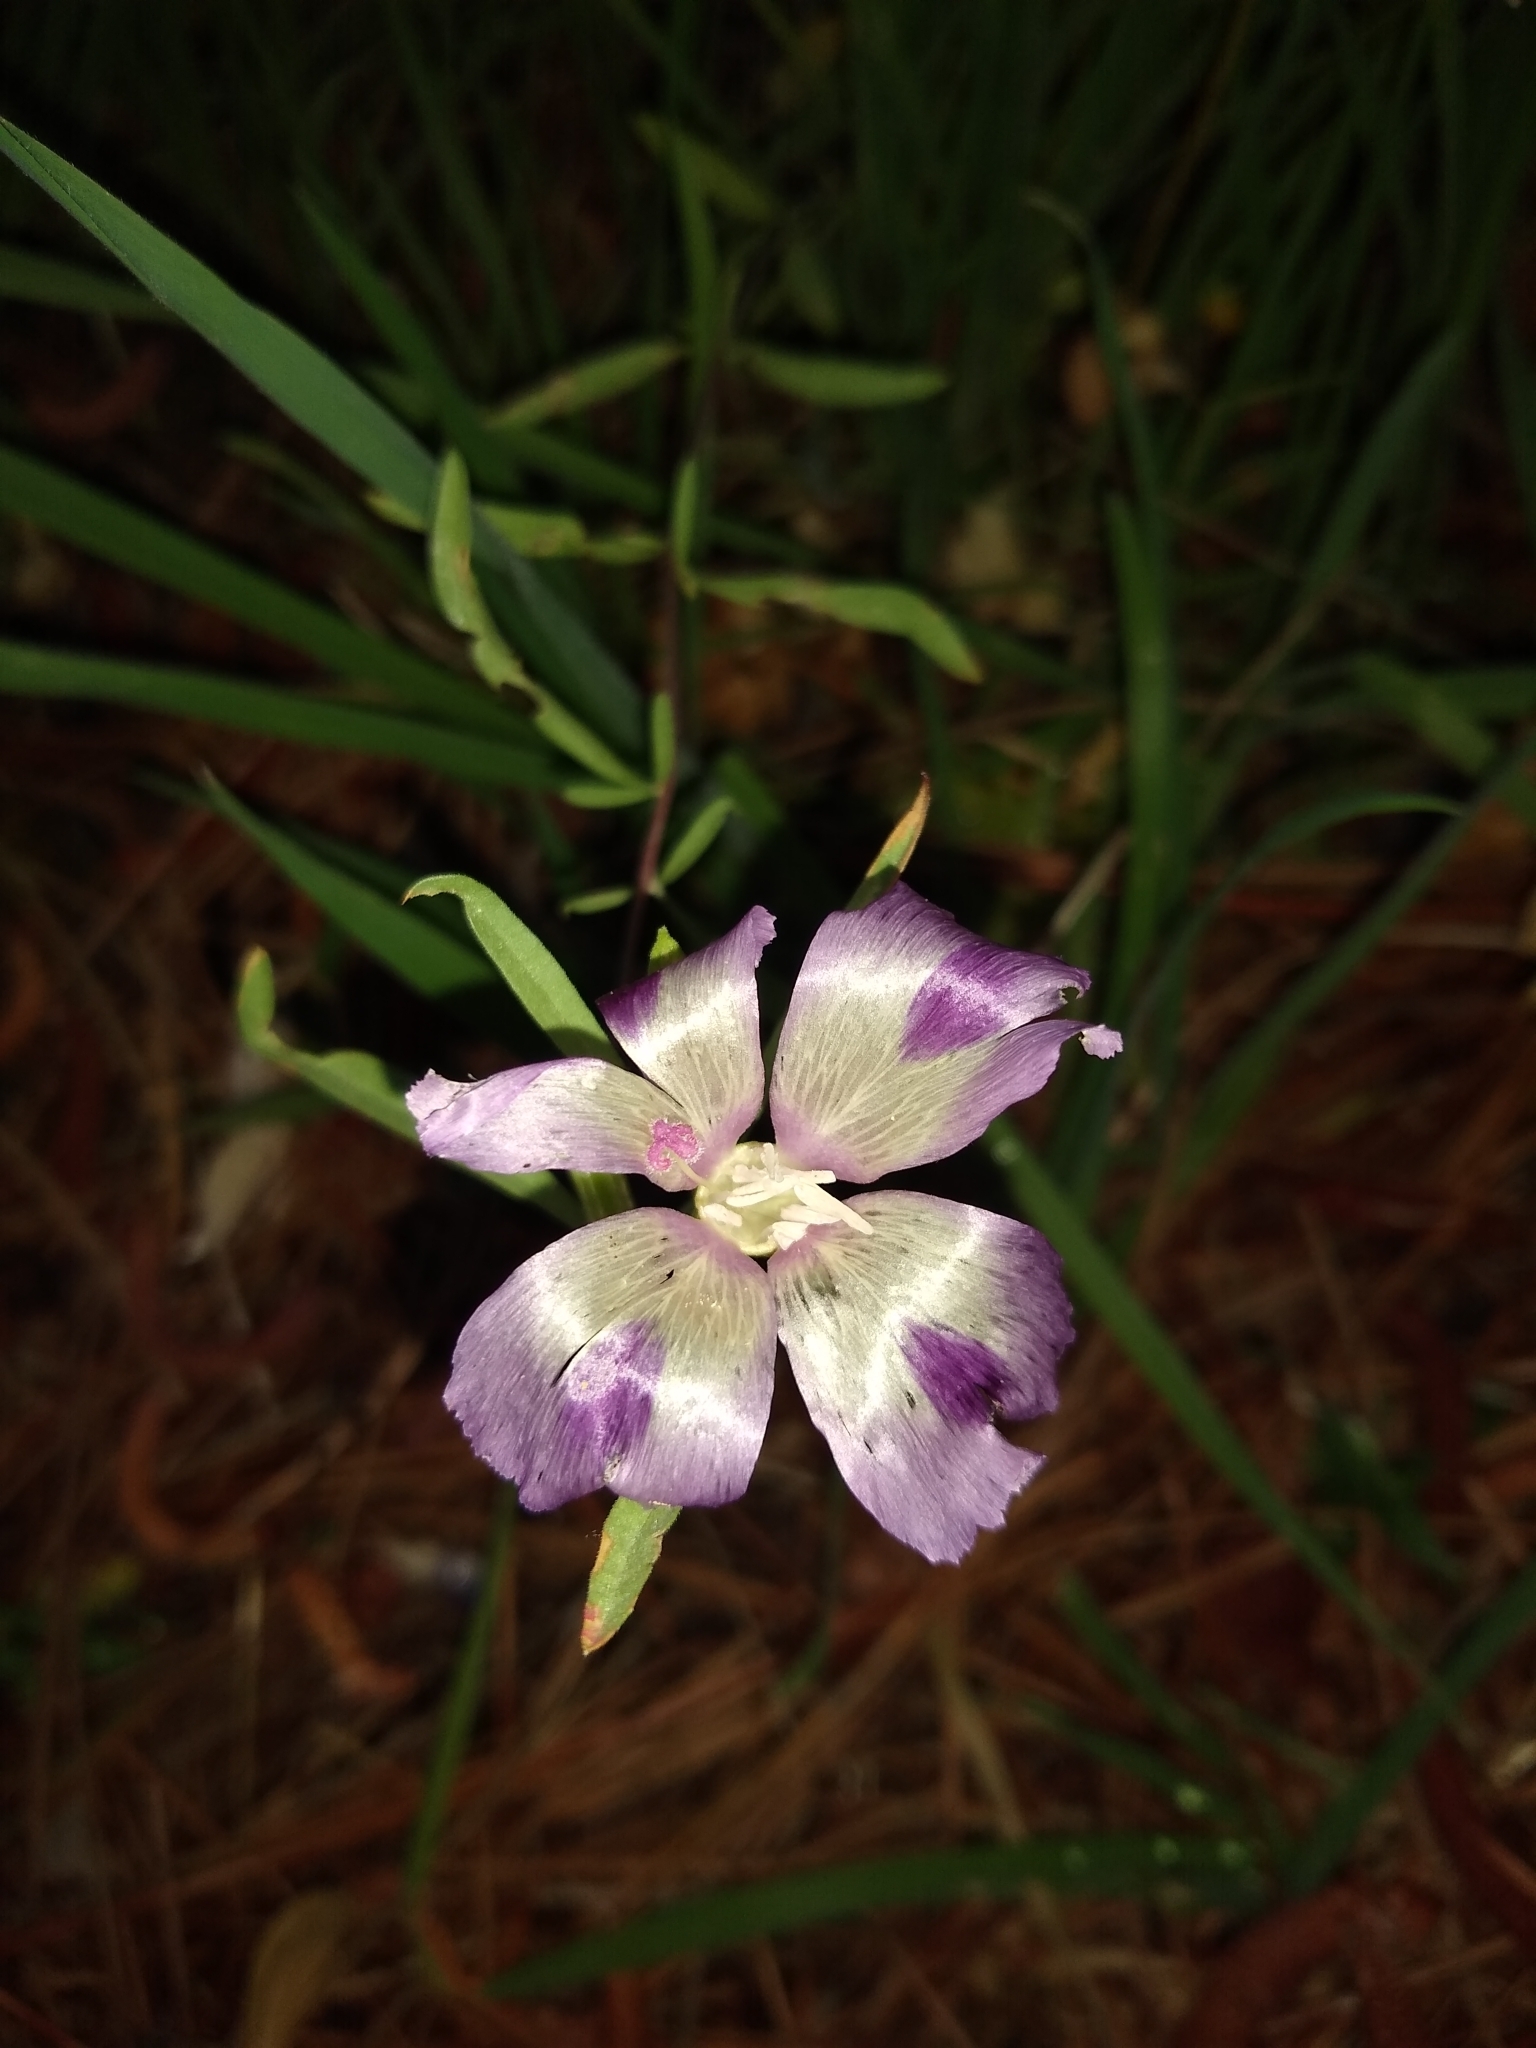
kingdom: Plantae
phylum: Tracheophyta
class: Magnoliopsida
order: Myrtales
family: Onagraceae
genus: Clarkia
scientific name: Clarkia williamsonii
